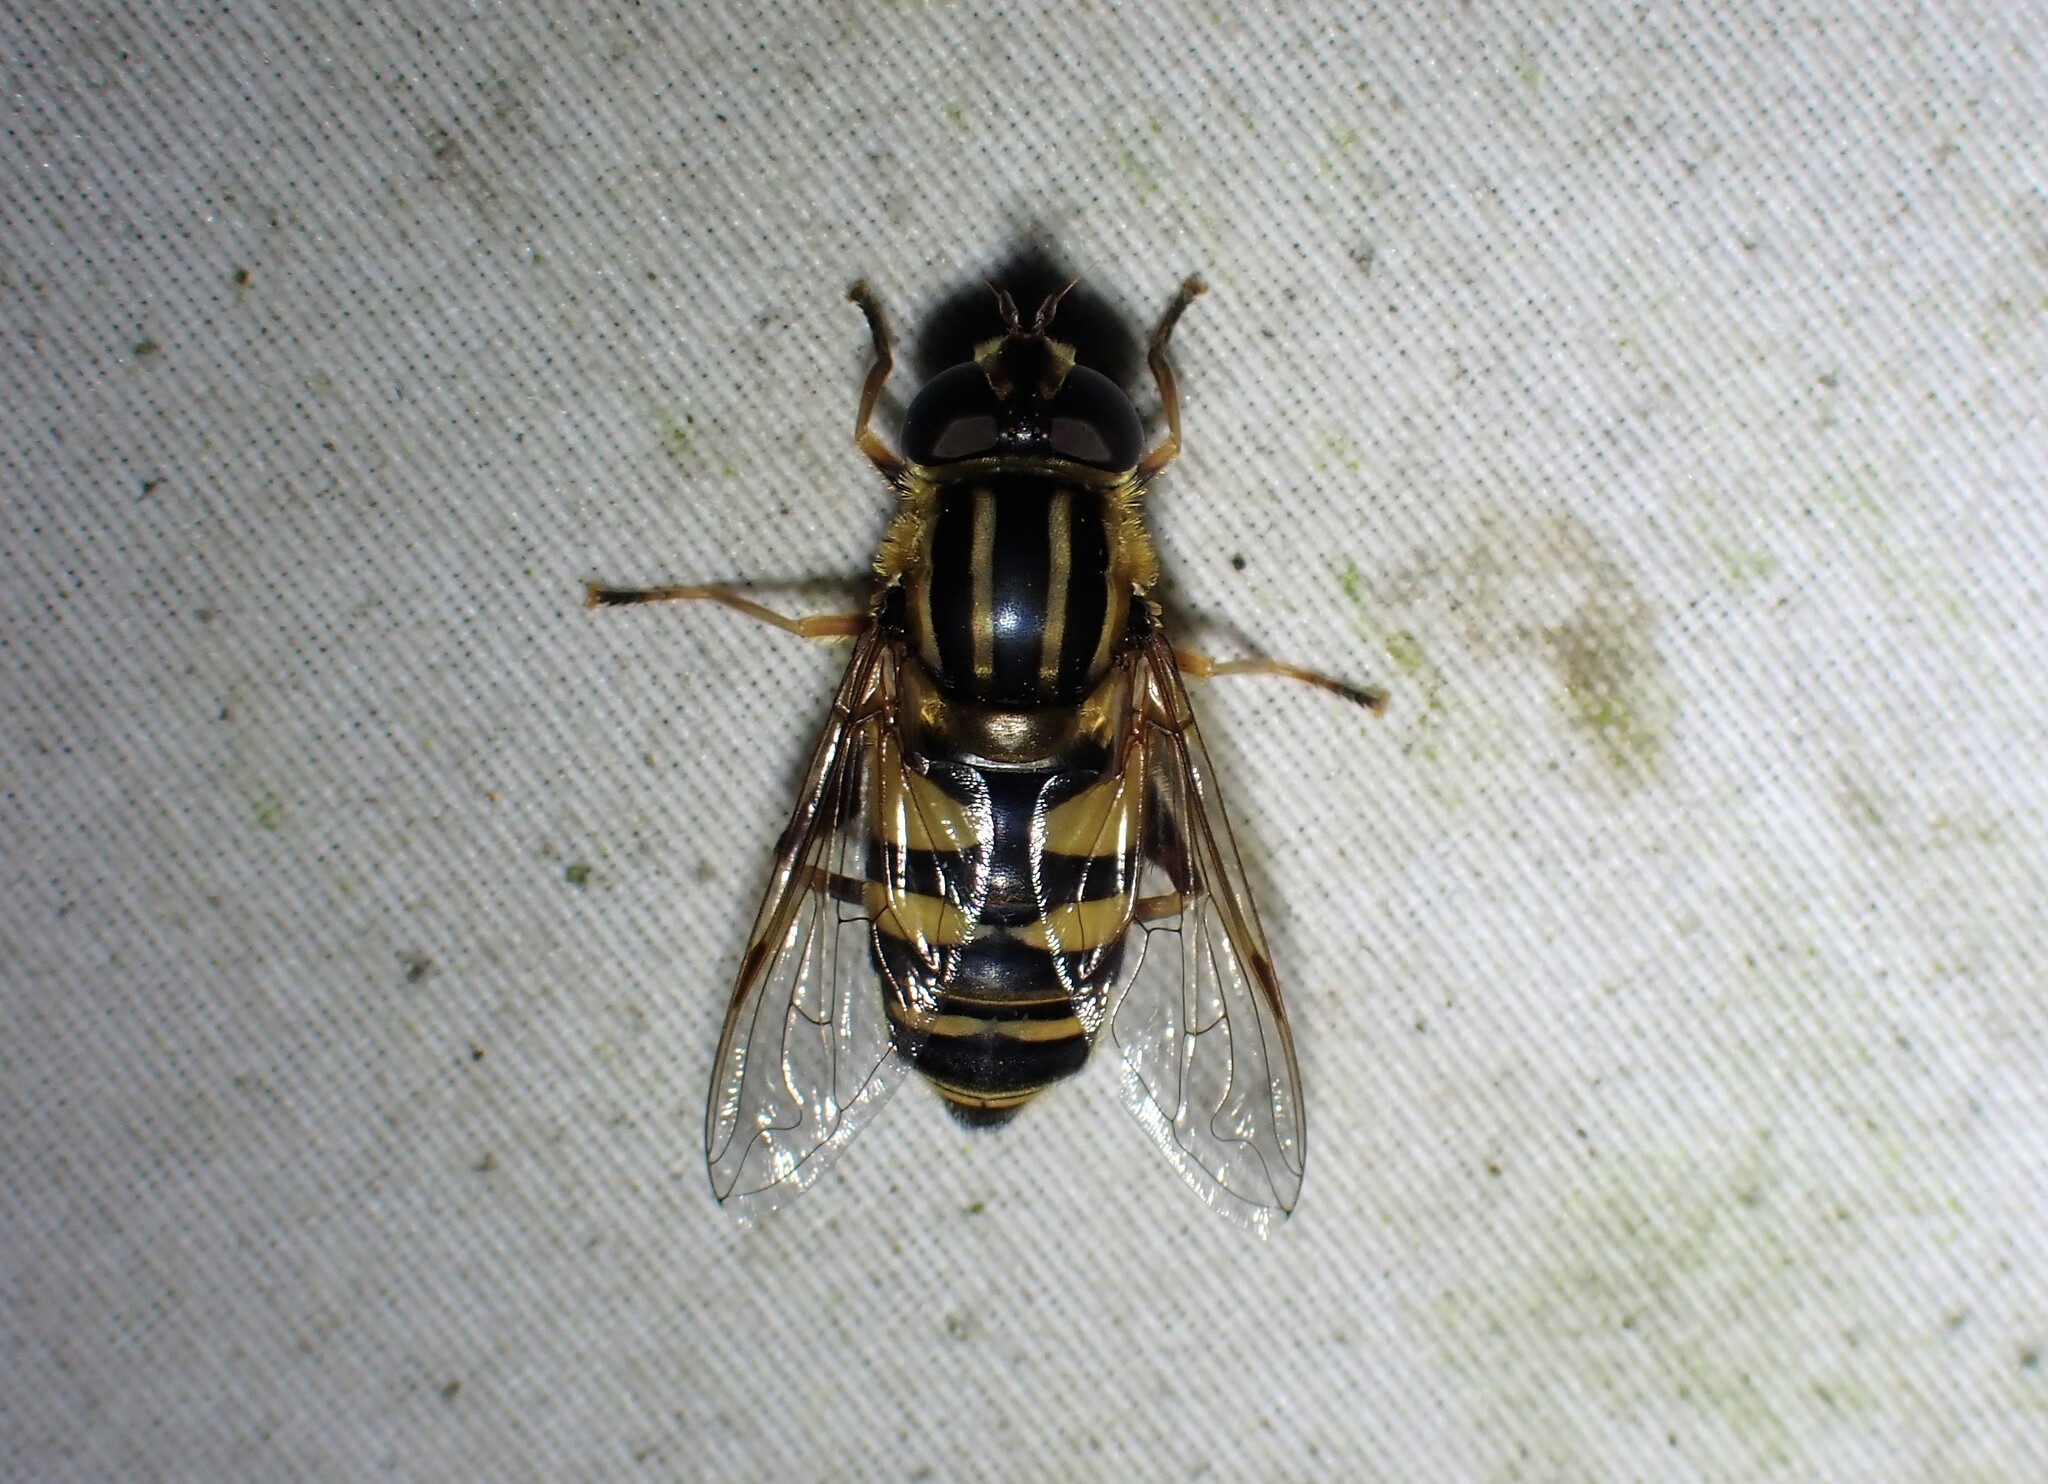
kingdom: Animalia
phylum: Arthropoda
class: Insecta
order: Diptera
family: Syrphidae
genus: Helophilus
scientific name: Helophilus fasciatus
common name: Narrow-headed marsh fly
